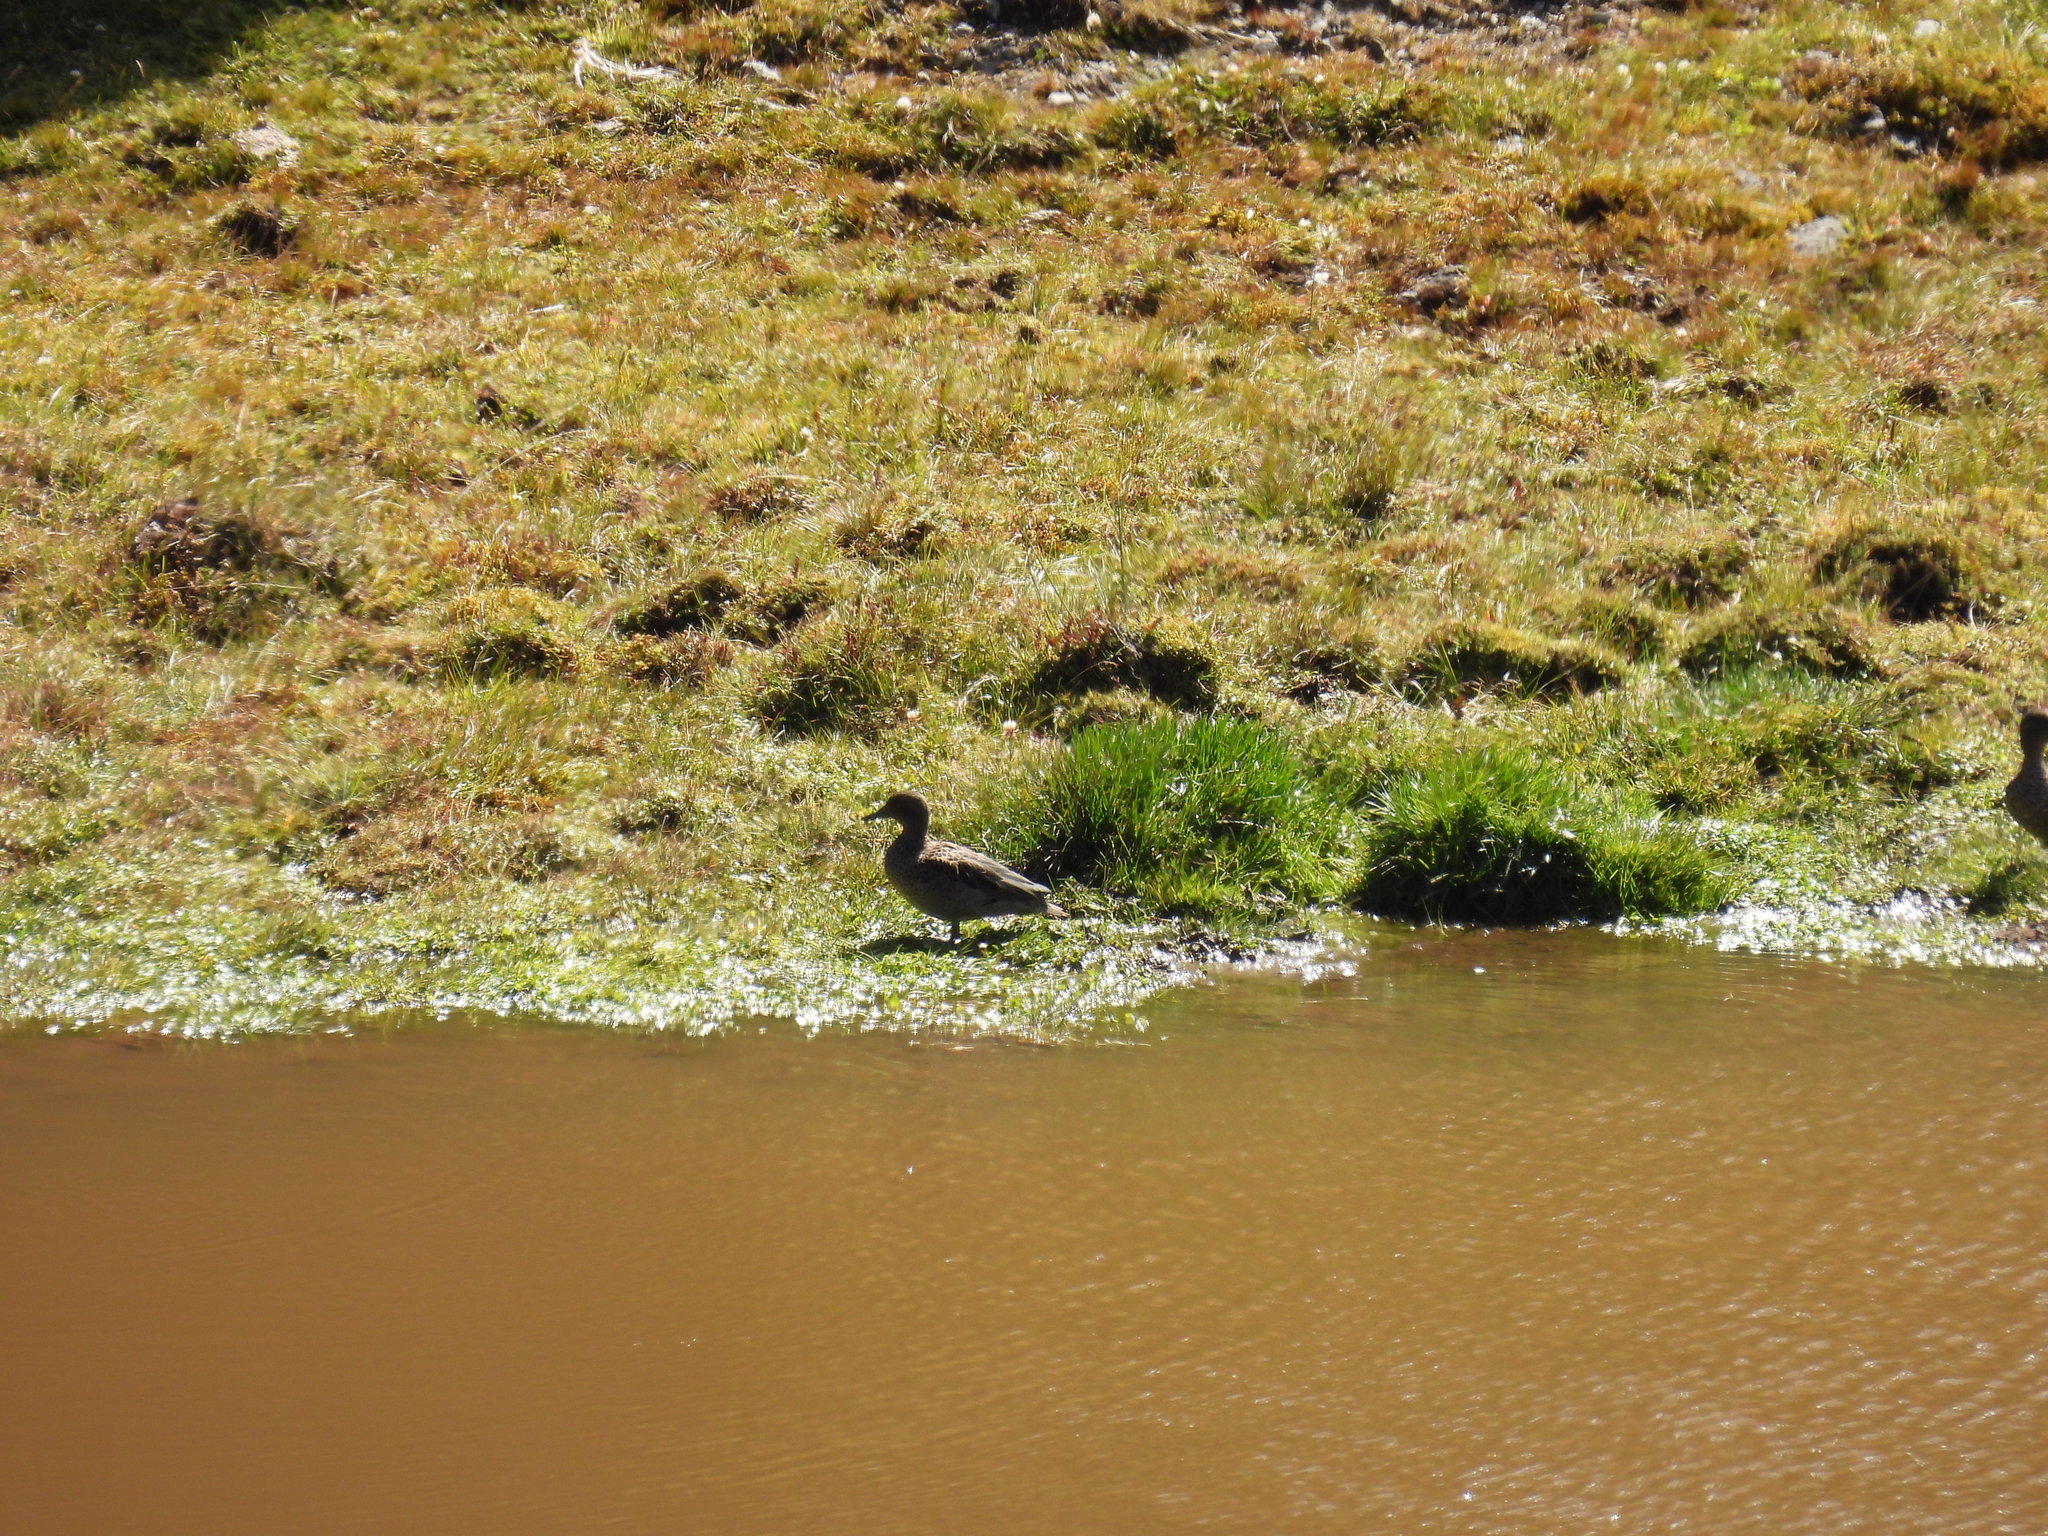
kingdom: Animalia
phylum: Chordata
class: Aves
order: Anseriformes
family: Anatidae
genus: Anas
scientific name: Anas andium
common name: Andean teal
